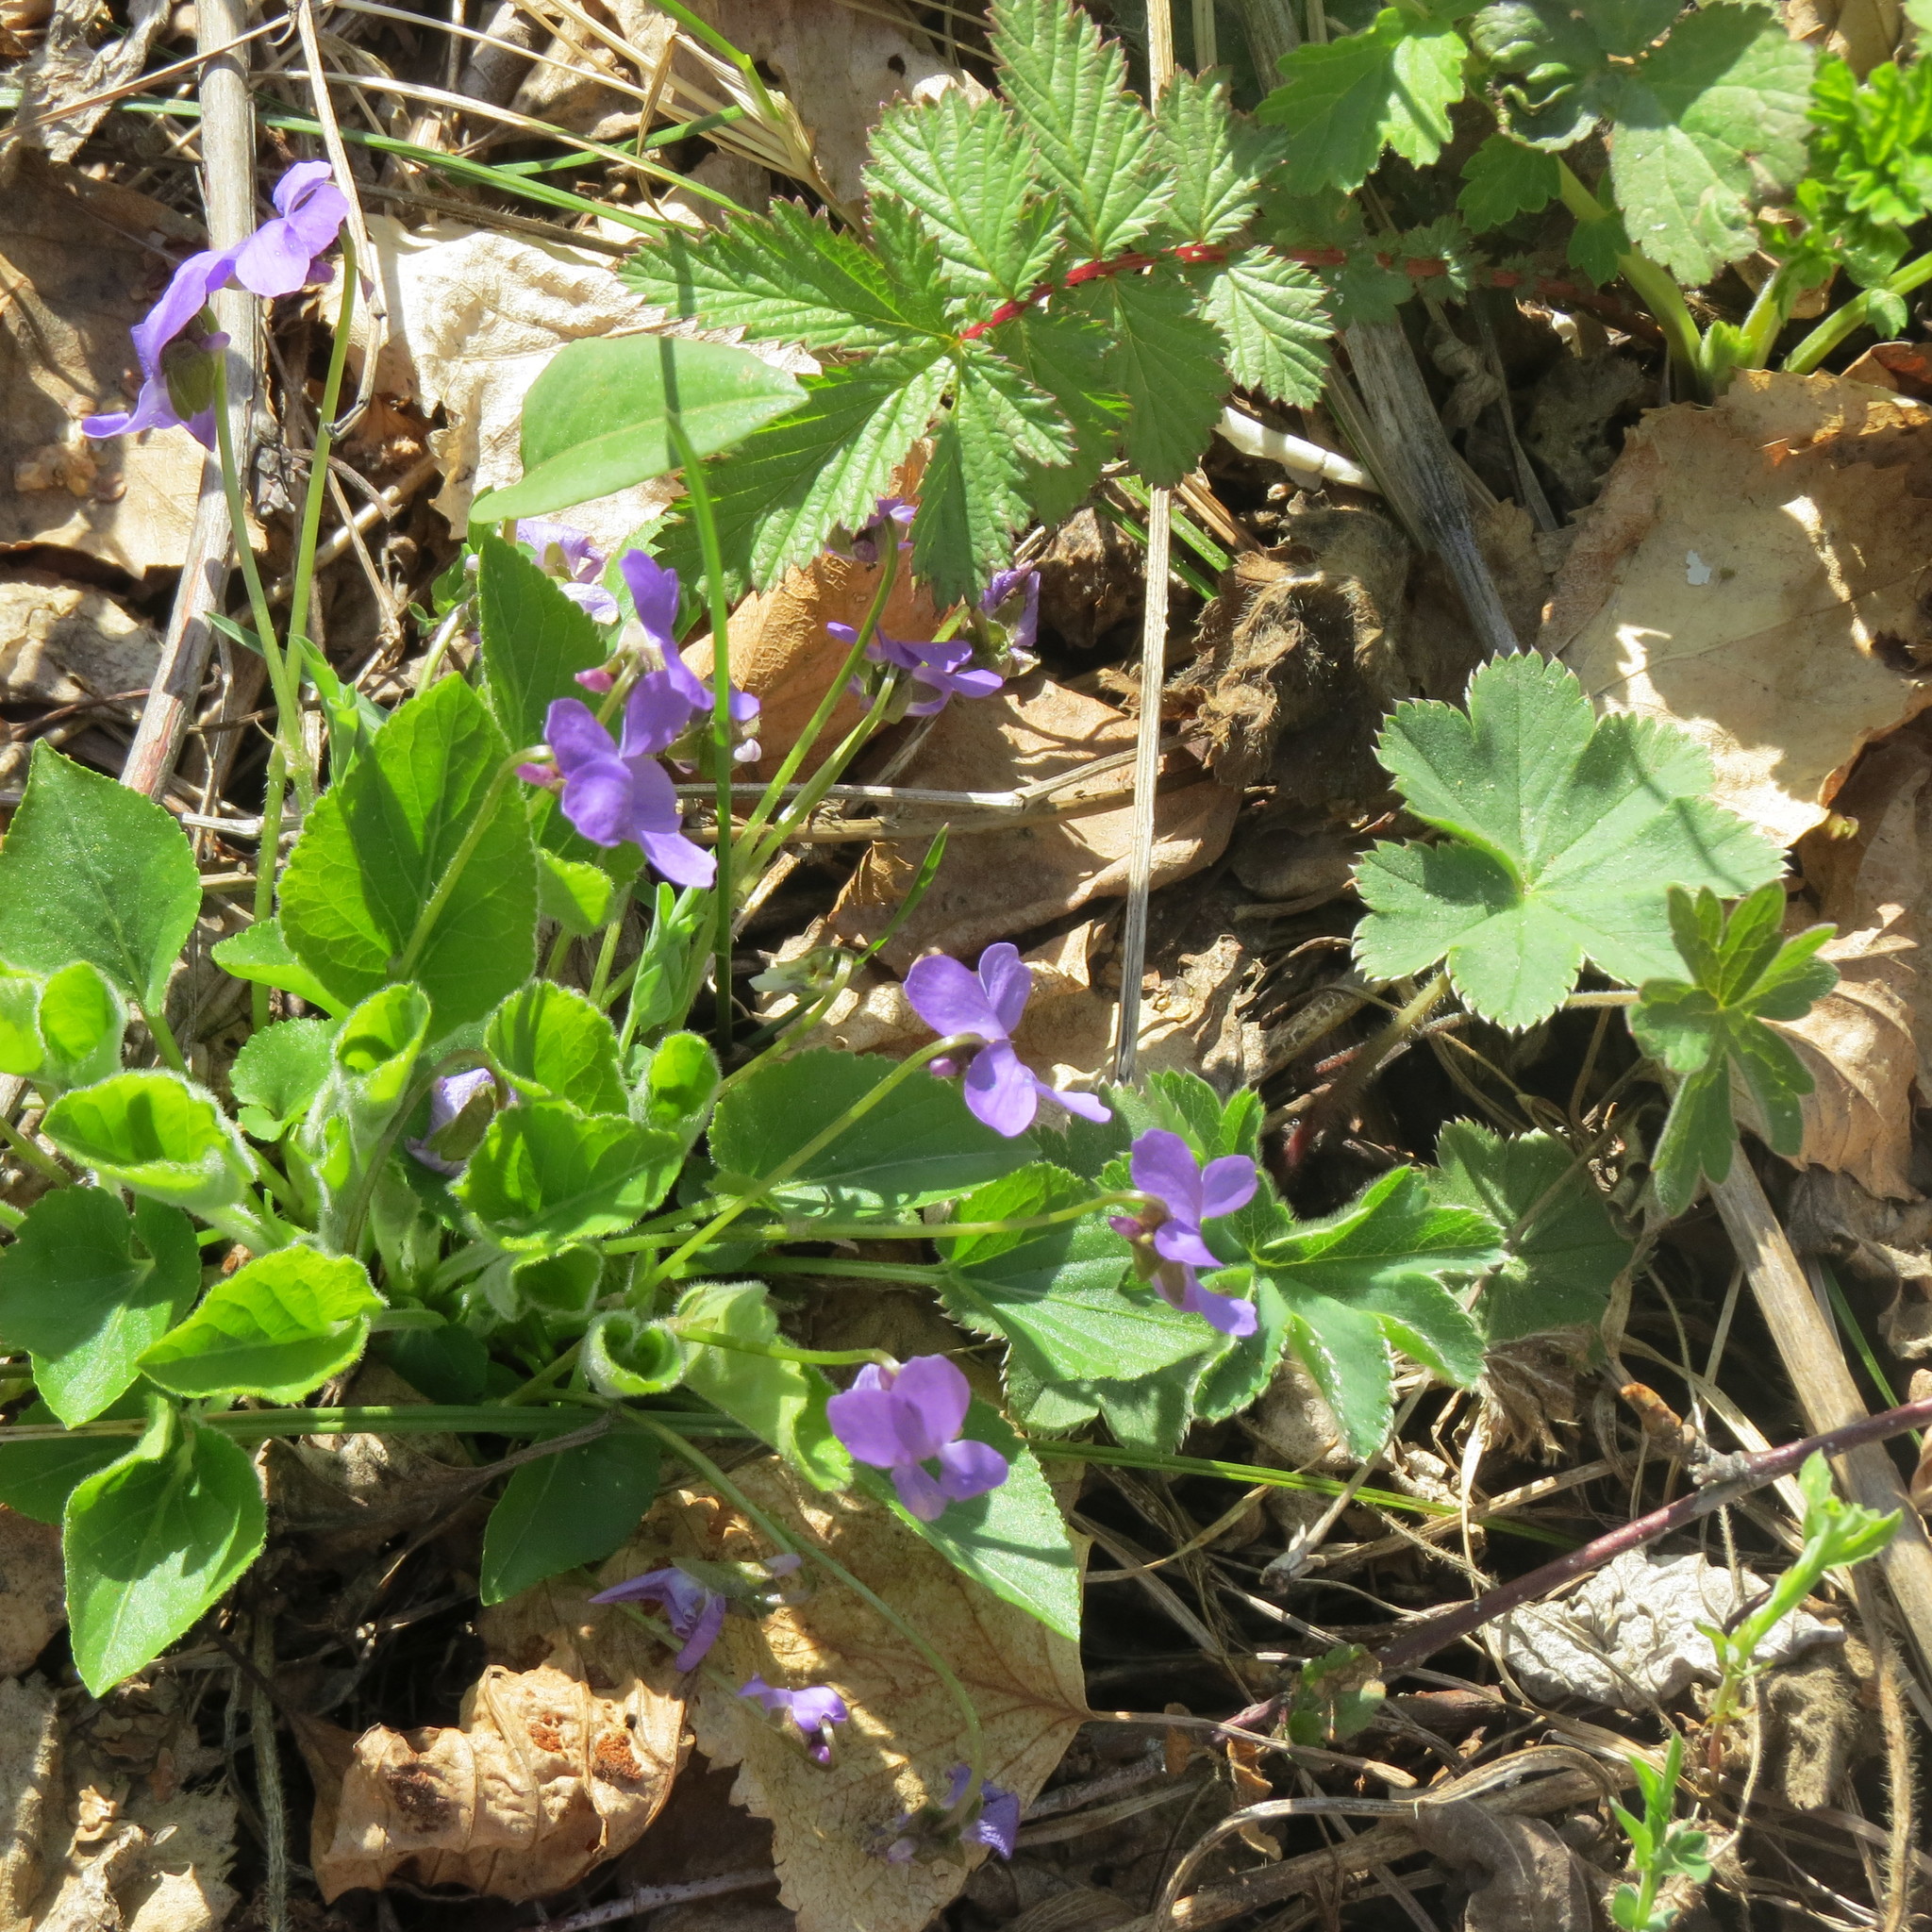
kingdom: Plantae
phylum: Tracheophyta
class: Magnoliopsida
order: Malpighiales
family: Violaceae
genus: Viola
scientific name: Viola hirta
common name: Hairy violet
